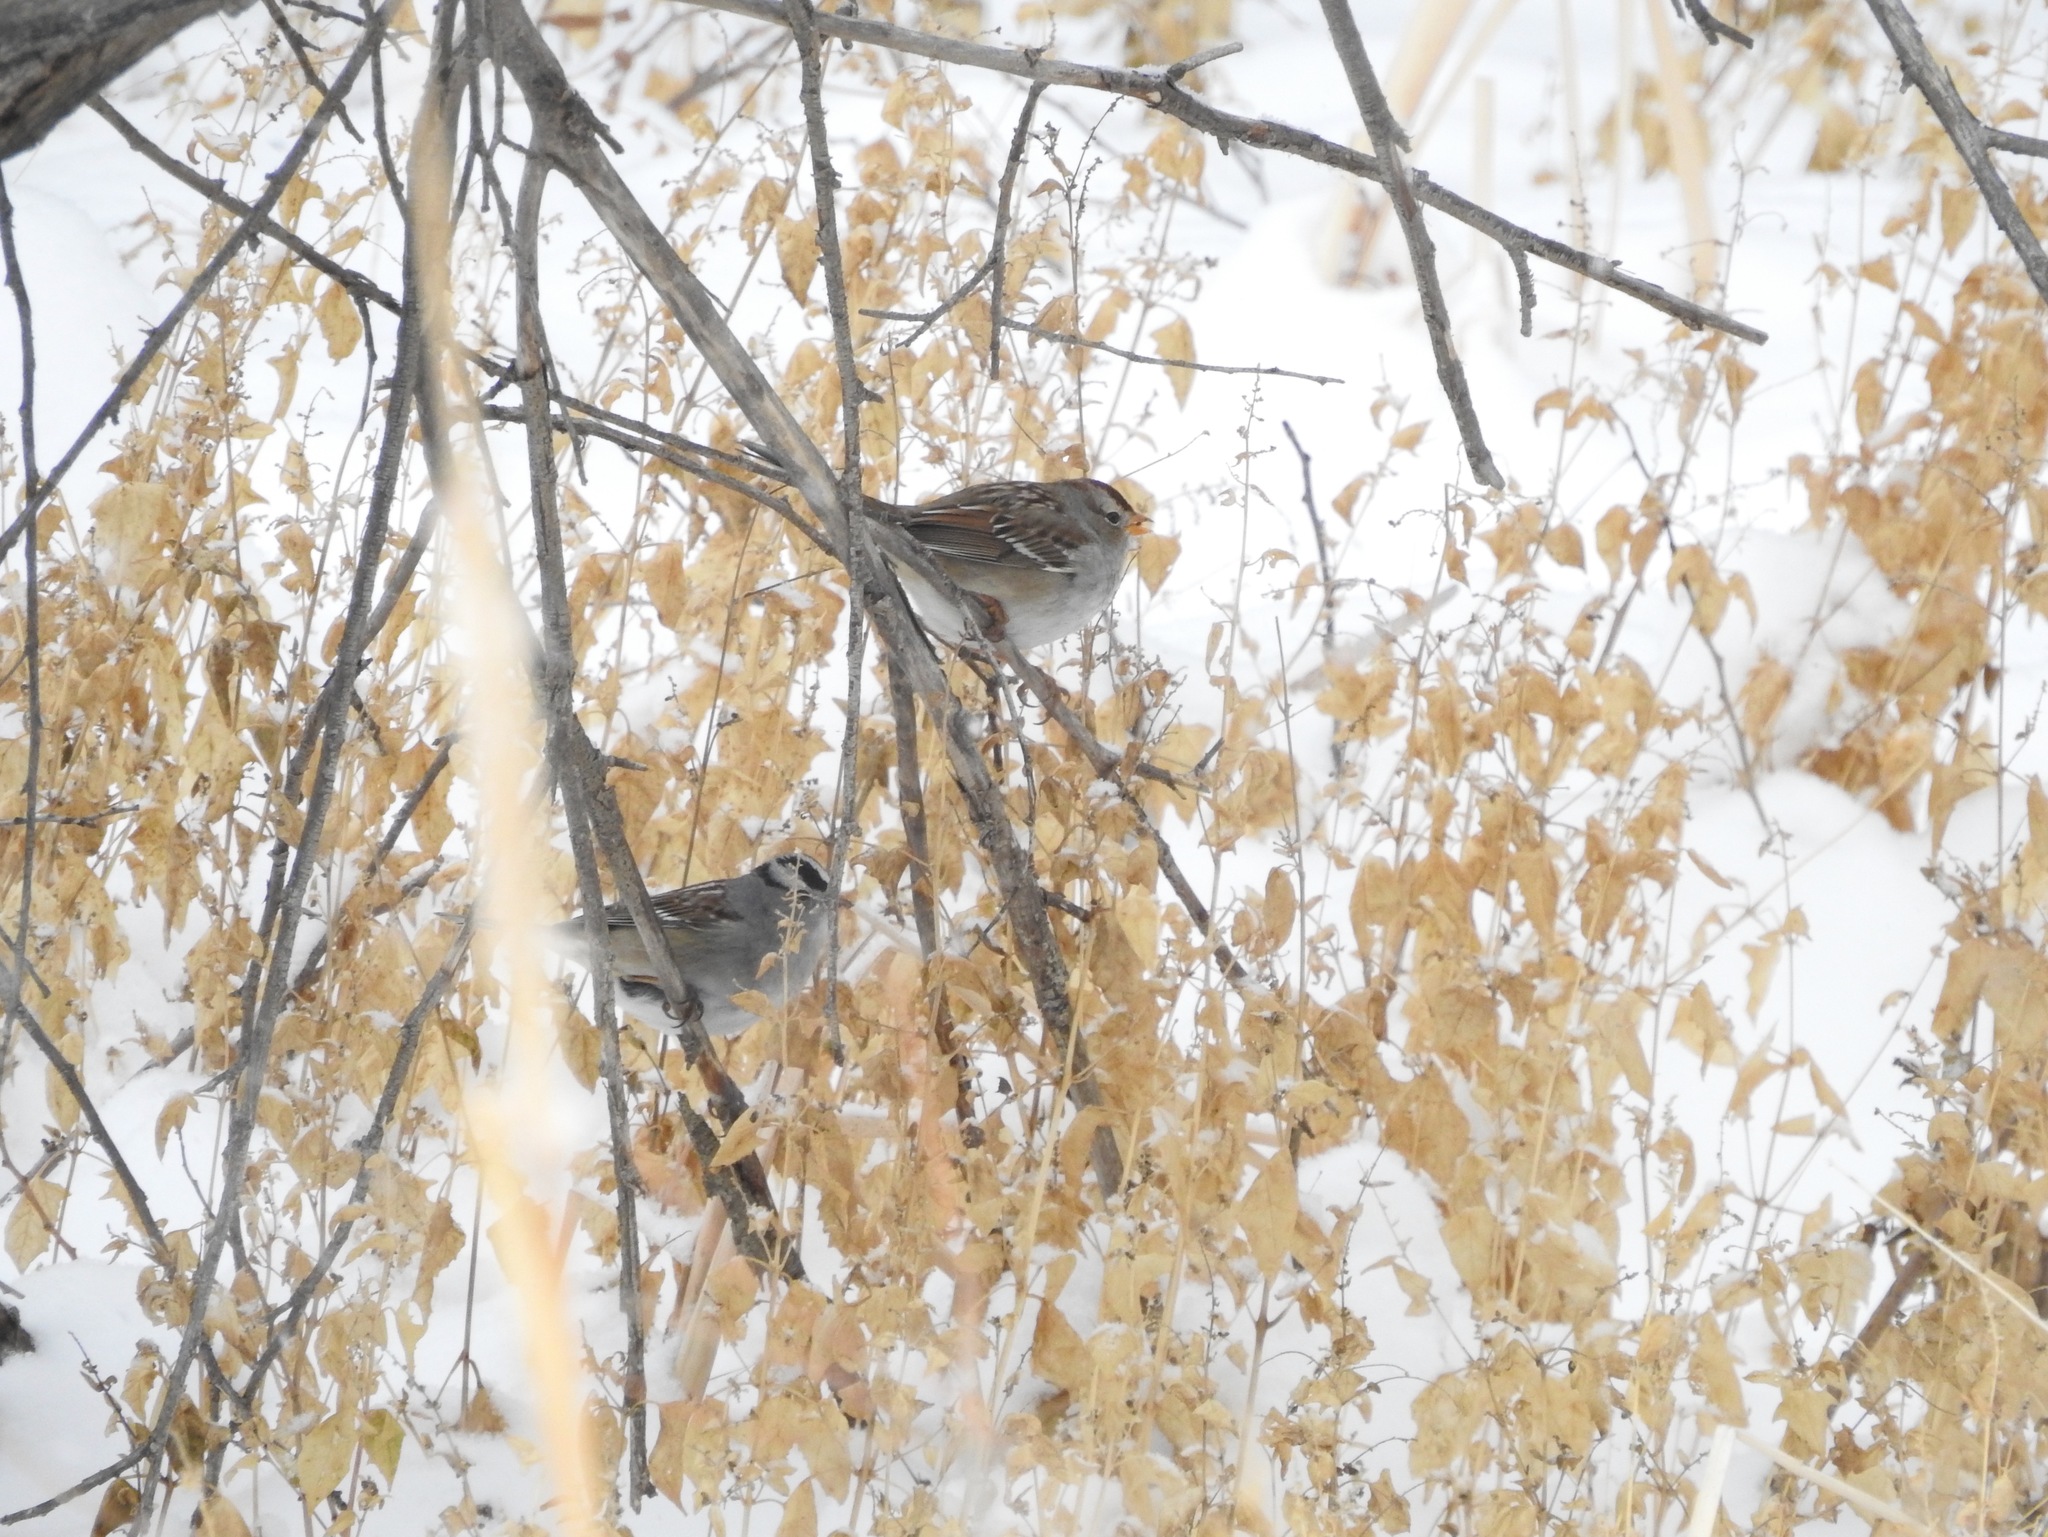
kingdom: Animalia
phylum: Chordata
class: Aves
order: Passeriformes
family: Passerellidae
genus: Zonotrichia
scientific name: Zonotrichia leucophrys
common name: White-crowned sparrow
